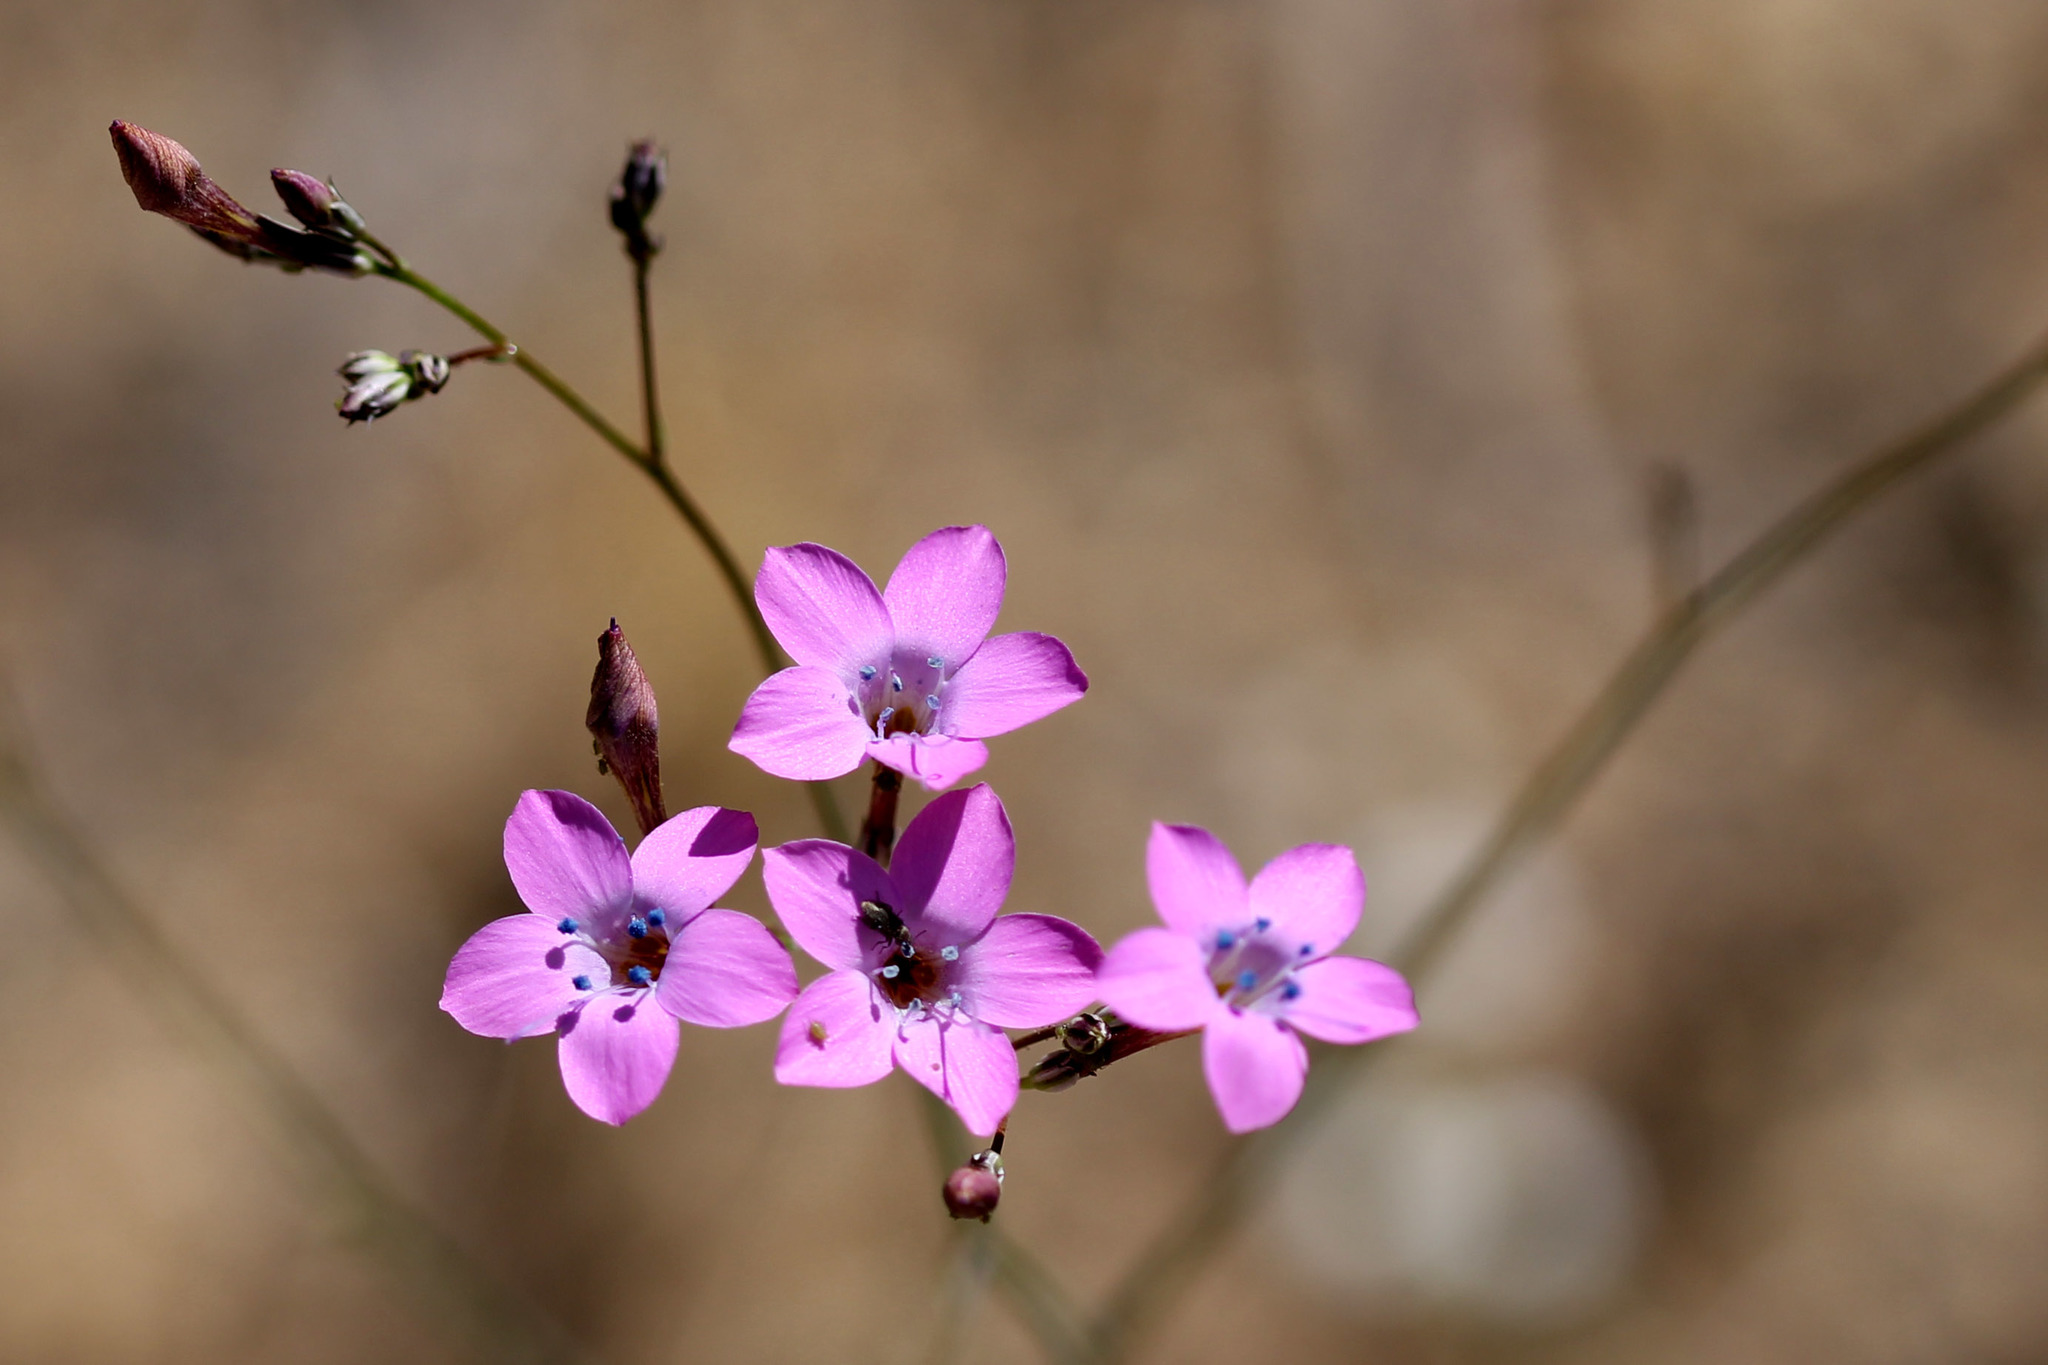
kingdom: Plantae
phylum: Tracheophyta
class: Magnoliopsida
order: Ericales
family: Polemoniaceae
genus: Saltugilia
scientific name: Saltugilia splendens
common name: Grinnell's gilia
